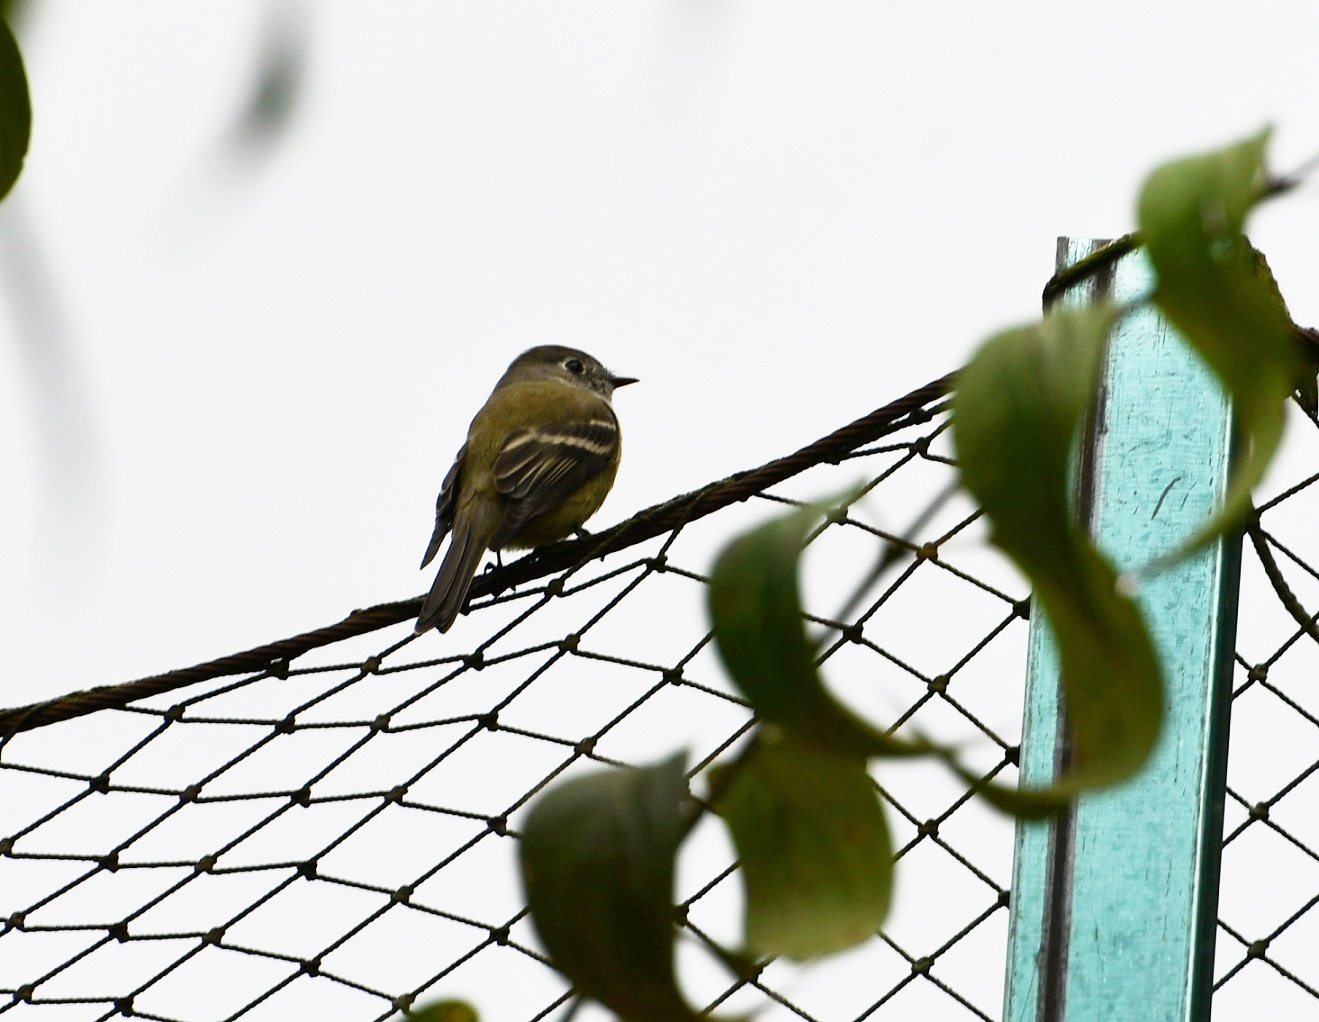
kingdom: Animalia
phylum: Chordata
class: Aves
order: Passeriformes
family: Tyrannidae
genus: Empidonax
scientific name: Empidonax hammondii
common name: Hammond's flycatcher
